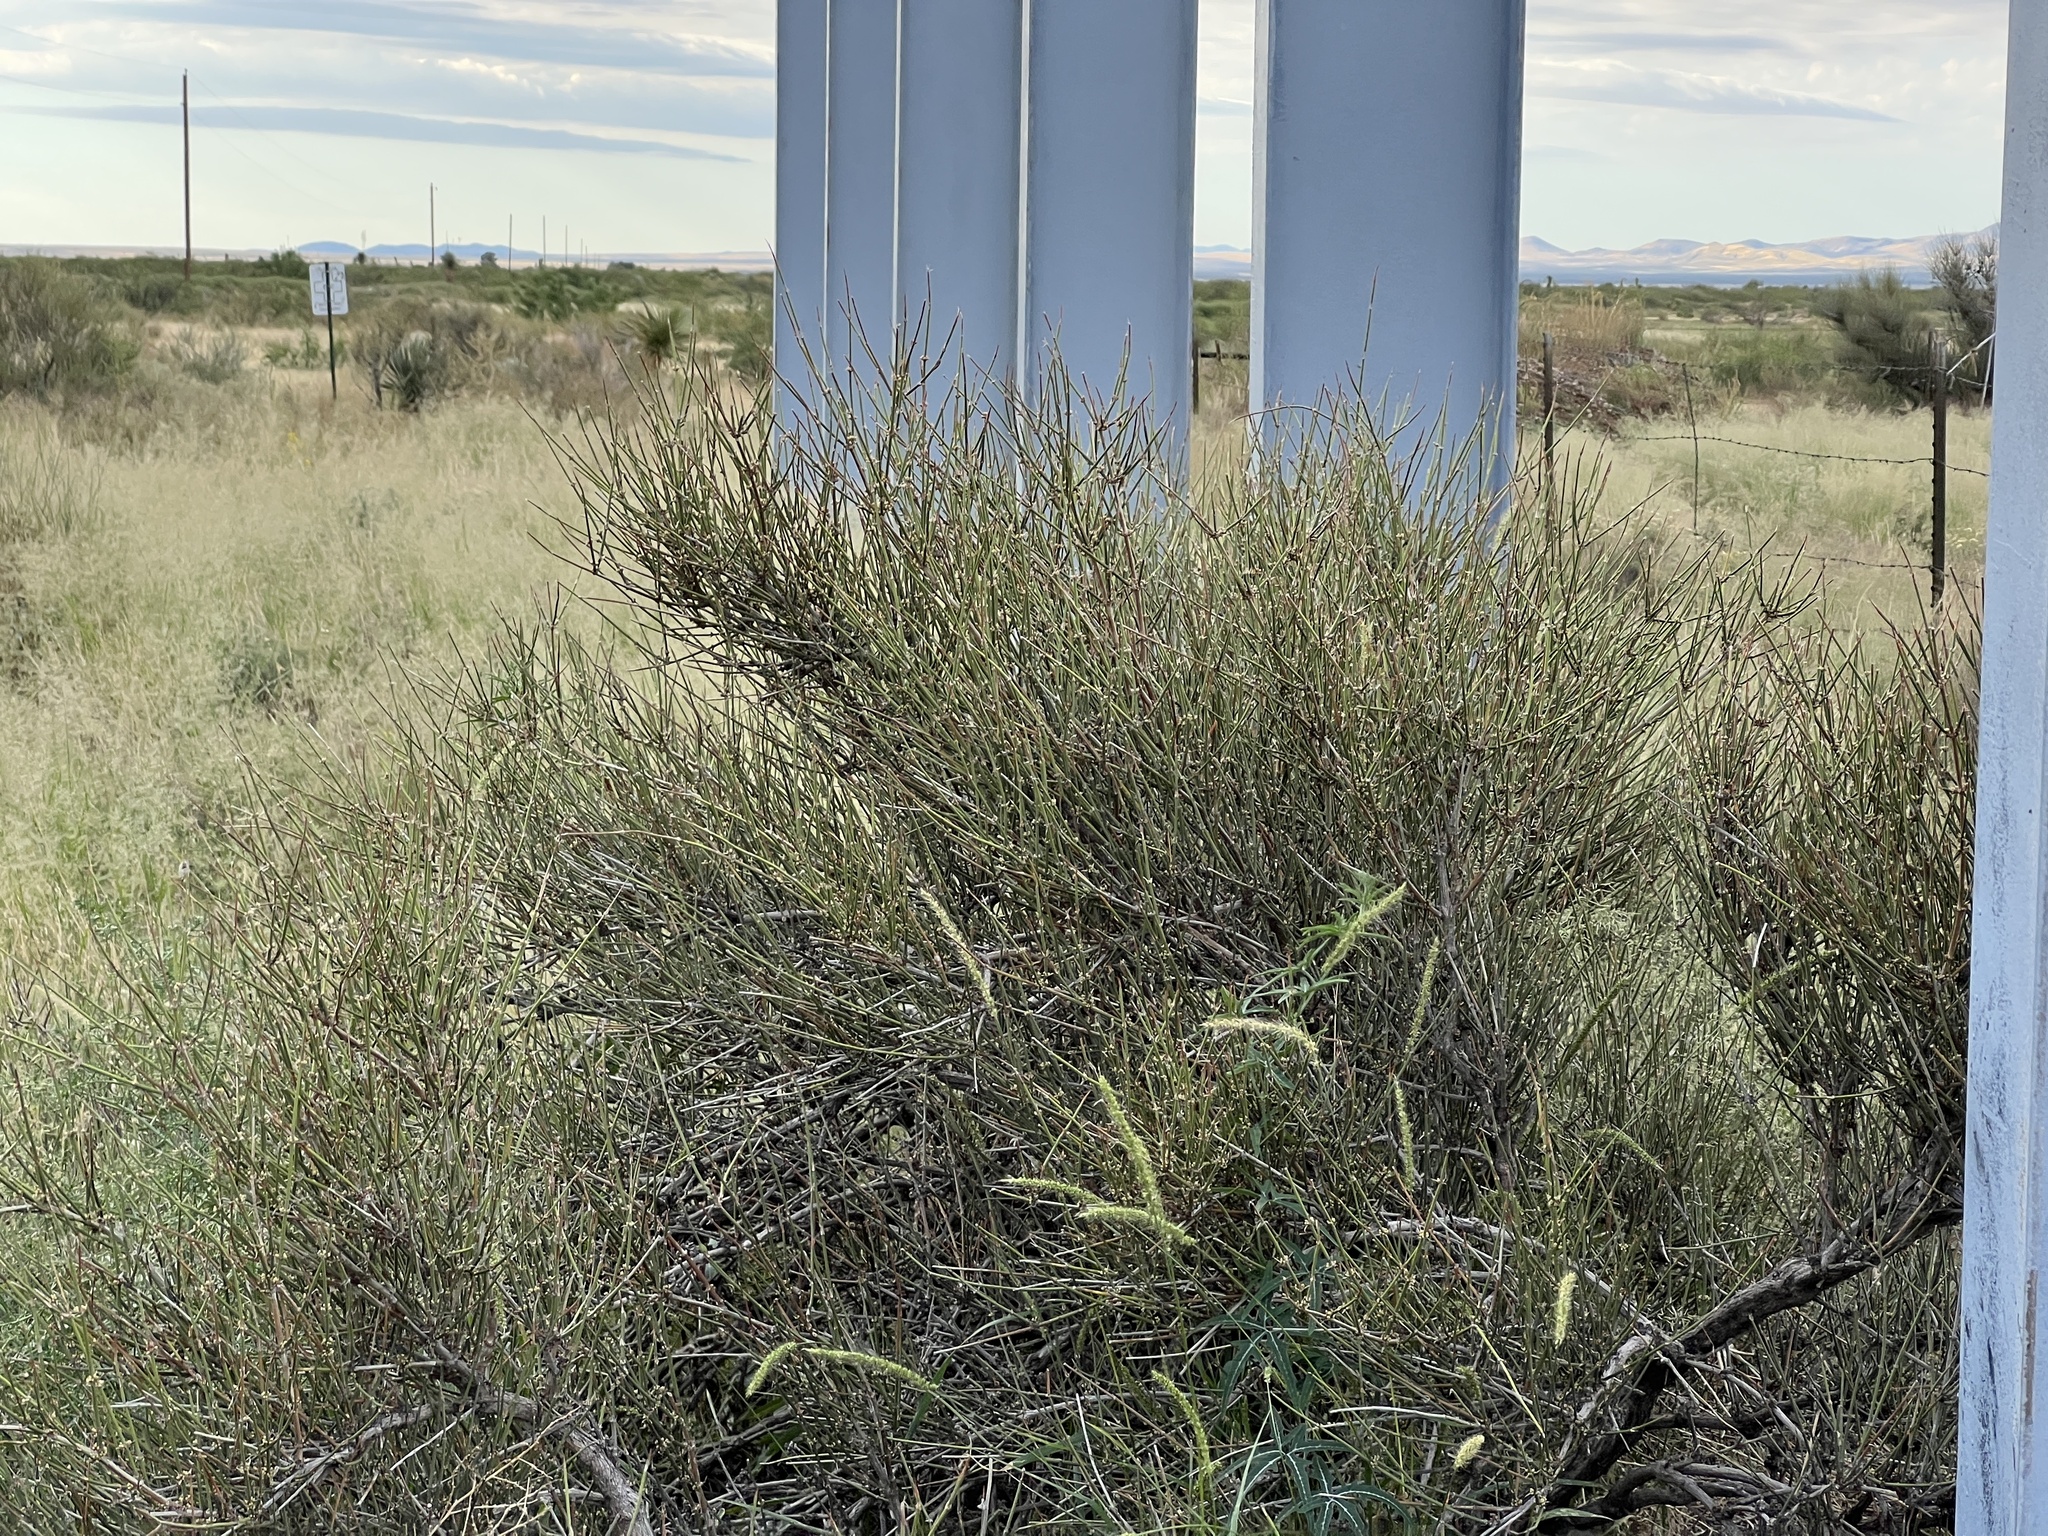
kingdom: Plantae
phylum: Tracheophyta
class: Gnetopsida
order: Ephedrales
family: Ephedraceae
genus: Ephedra
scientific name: Ephedra trifurca
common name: Mexican-tea
